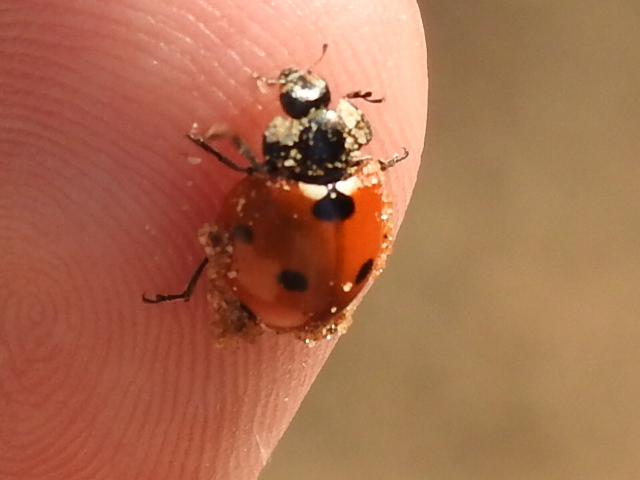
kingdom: Animalia
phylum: Arthropoda
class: Insecta
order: Coleoptera
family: Coccinellidae
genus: Coccinella
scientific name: Coccinella septempunctata
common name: Sevenspotted lady beetle
